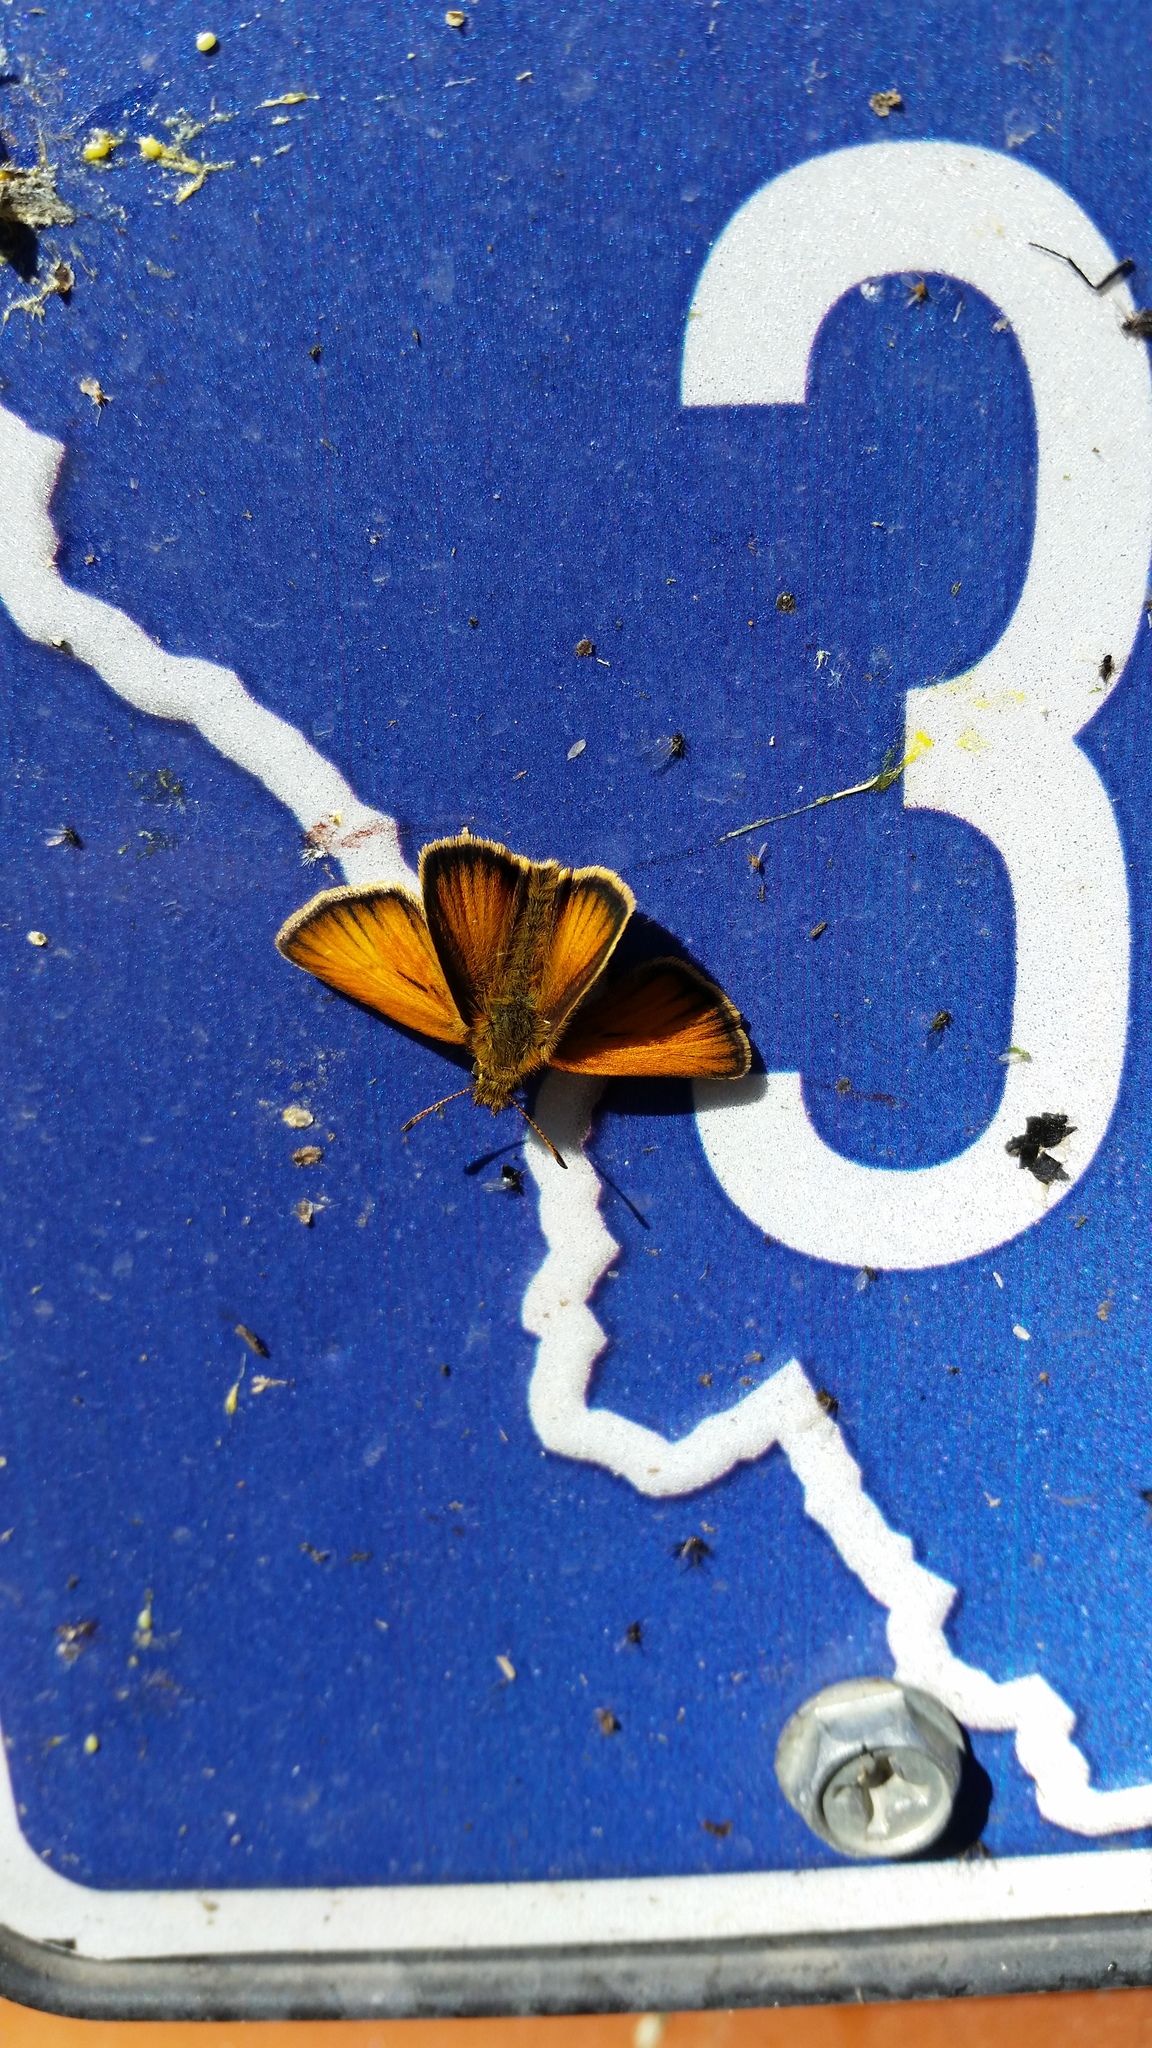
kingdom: Animalia
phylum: Arthropoda
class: Insecta
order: Lepidoptera
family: Hesperiidae
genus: Thymelicus
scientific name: Thymelicus lineola
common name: Essex skipper
